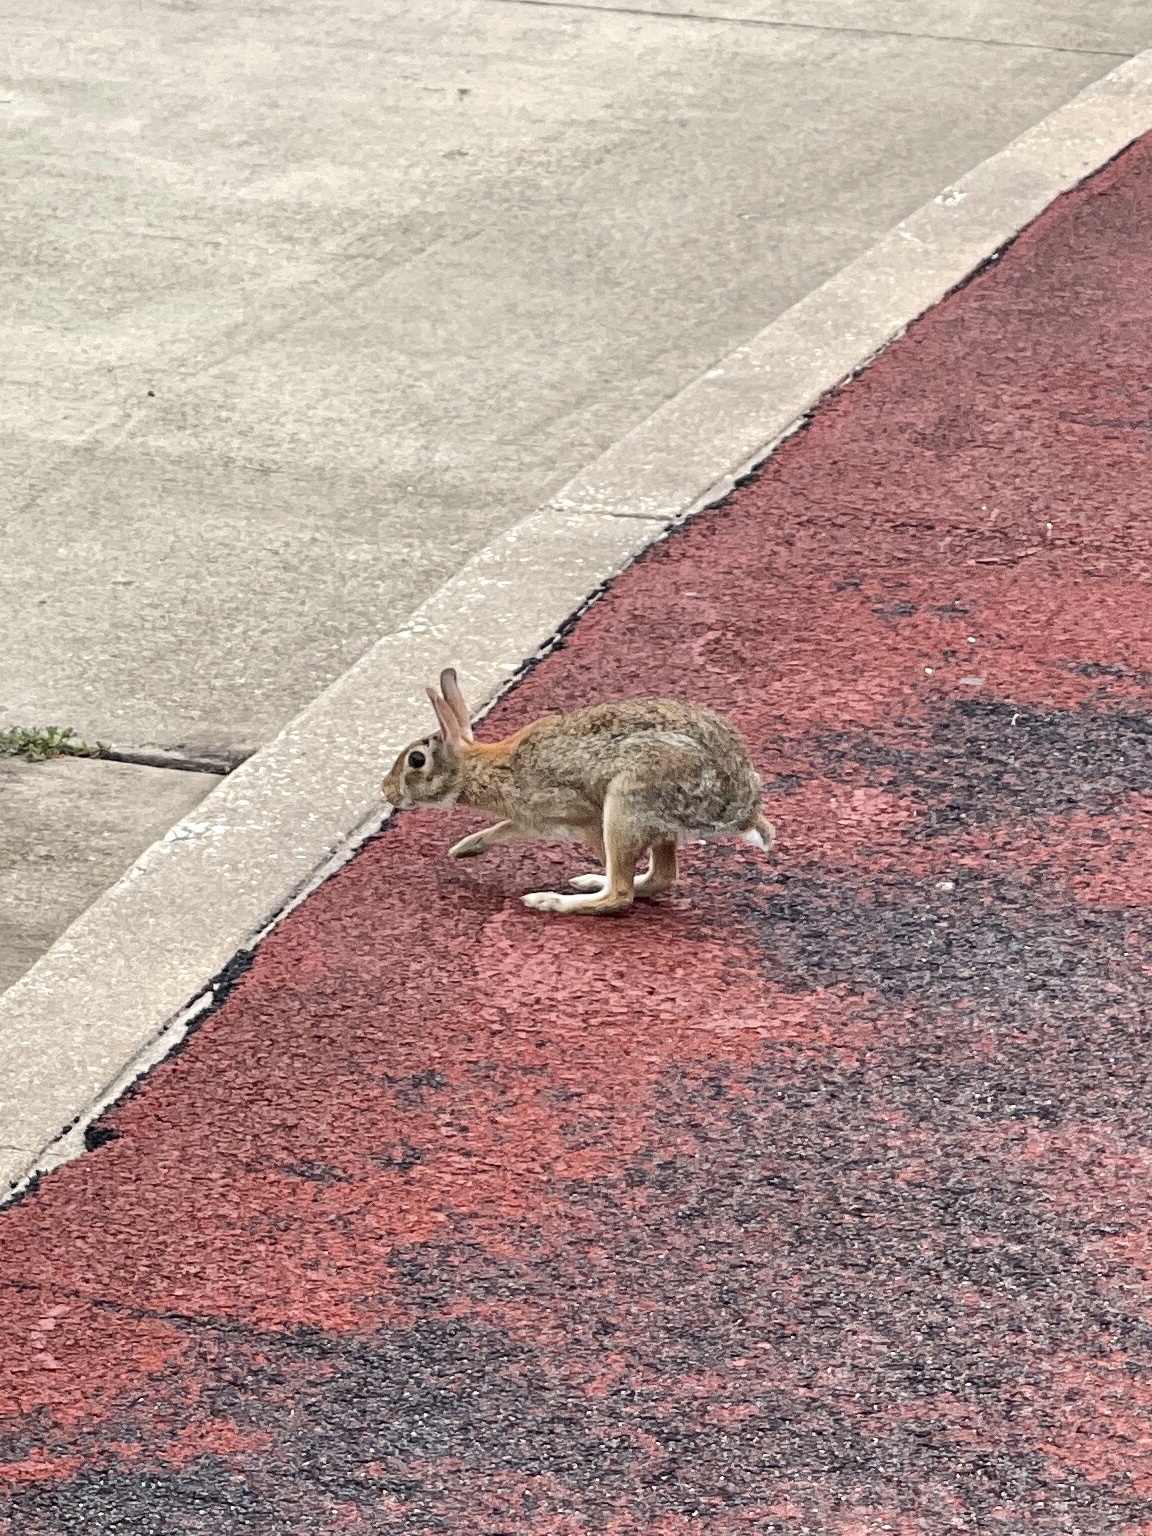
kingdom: Animalia
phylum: Chordata
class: Mammalia
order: Lagomorpha
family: Leporidae
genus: Sylvilagus
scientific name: Sylvilagus floridanus
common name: Eastern cottontail
